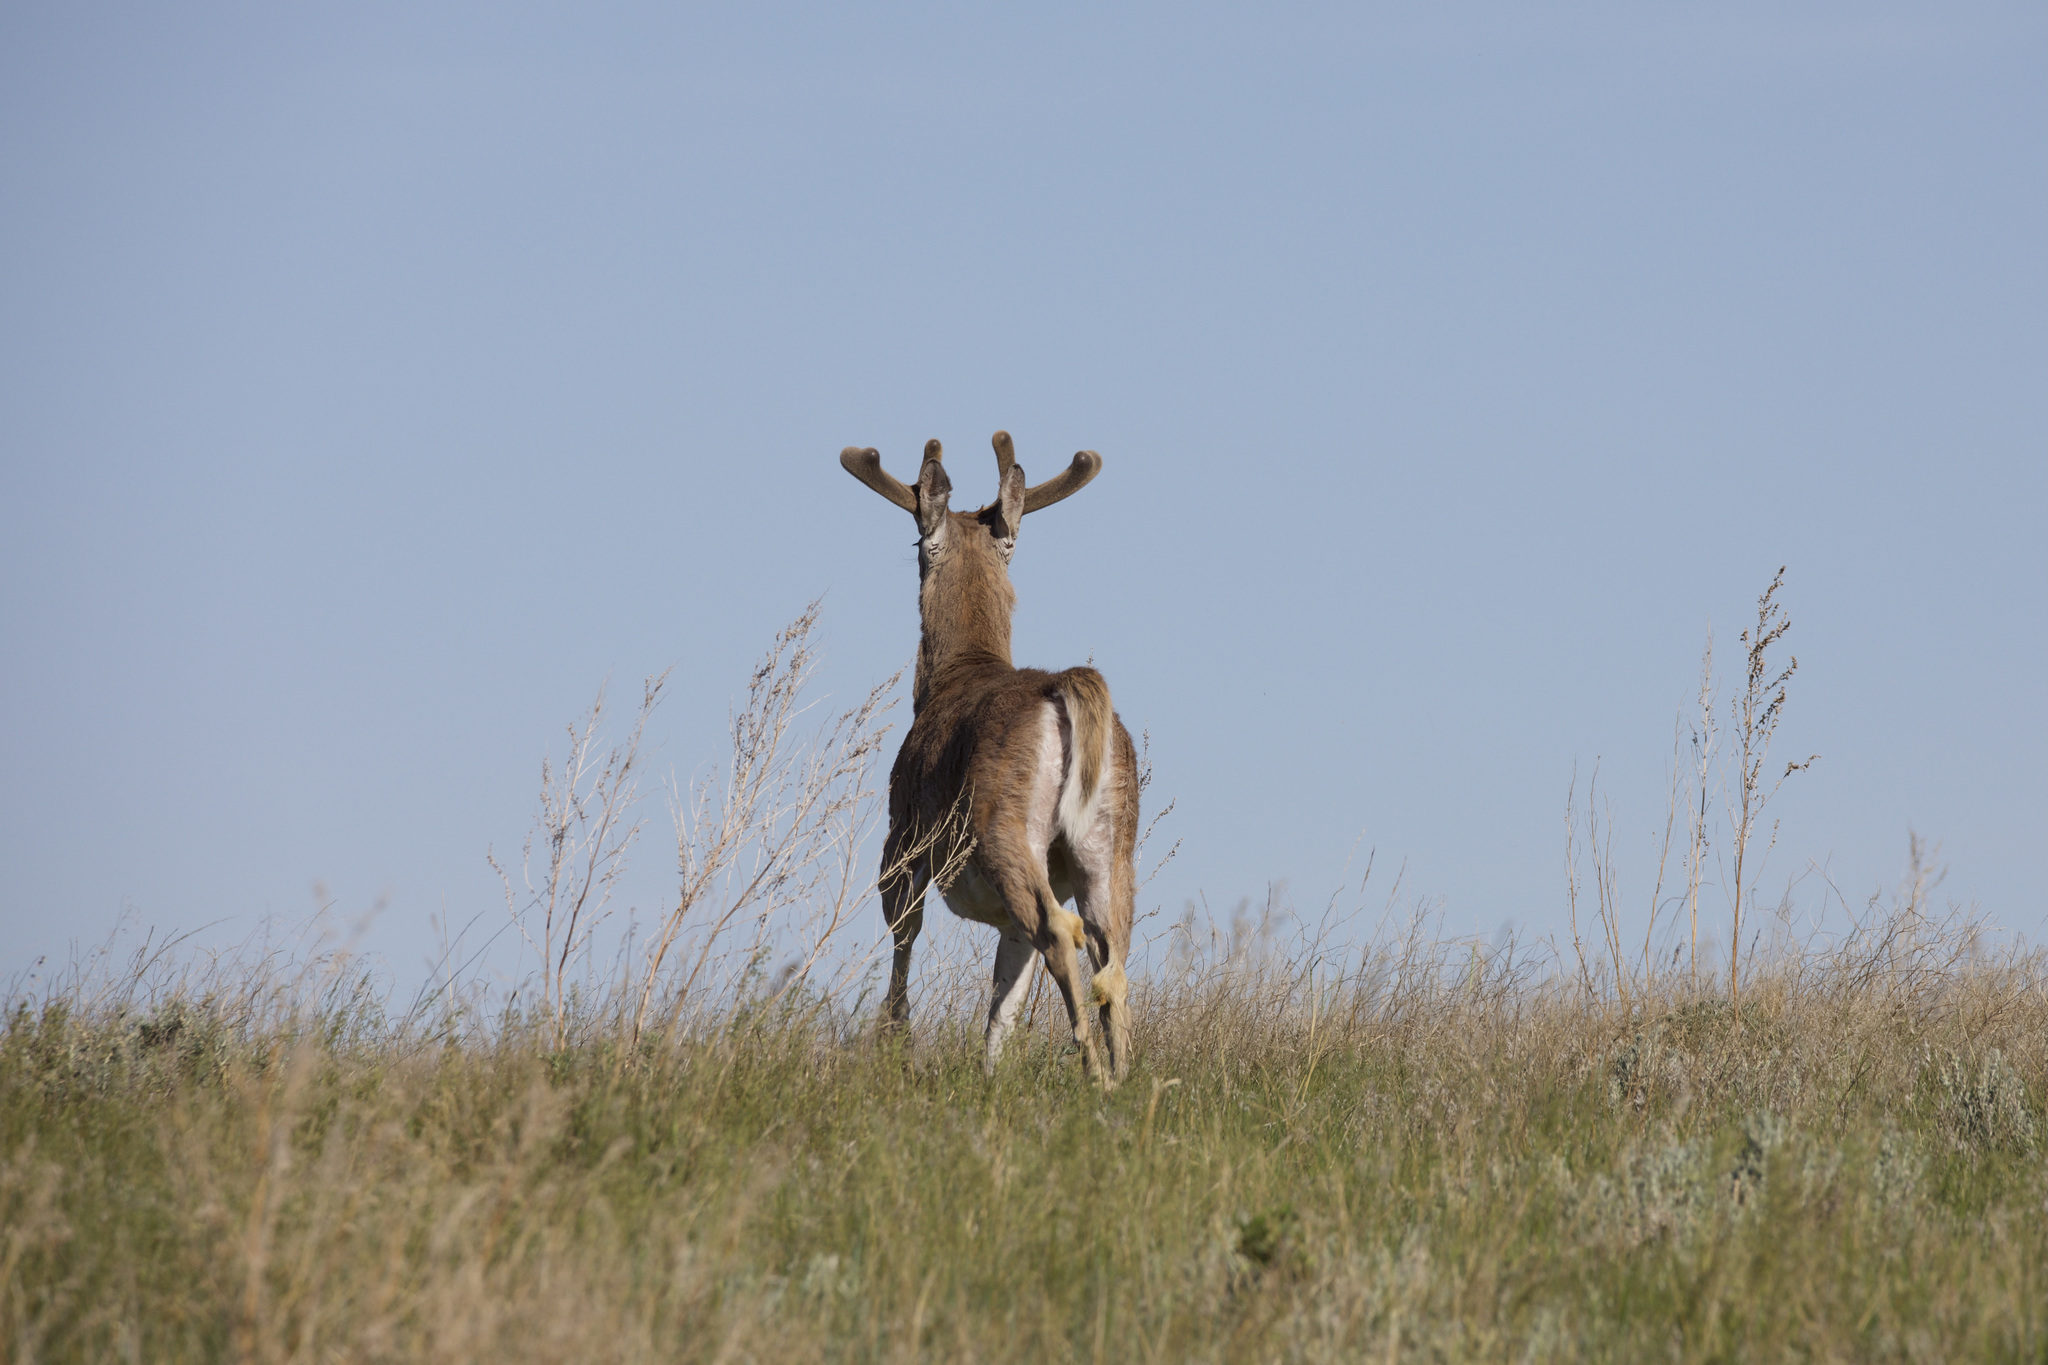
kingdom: Animalia
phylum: Chordata
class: Mammalia
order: Artiodactyla
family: Cervidae
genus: Odocoileus
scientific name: Odocoileus virginianus
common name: White-tailed deer
